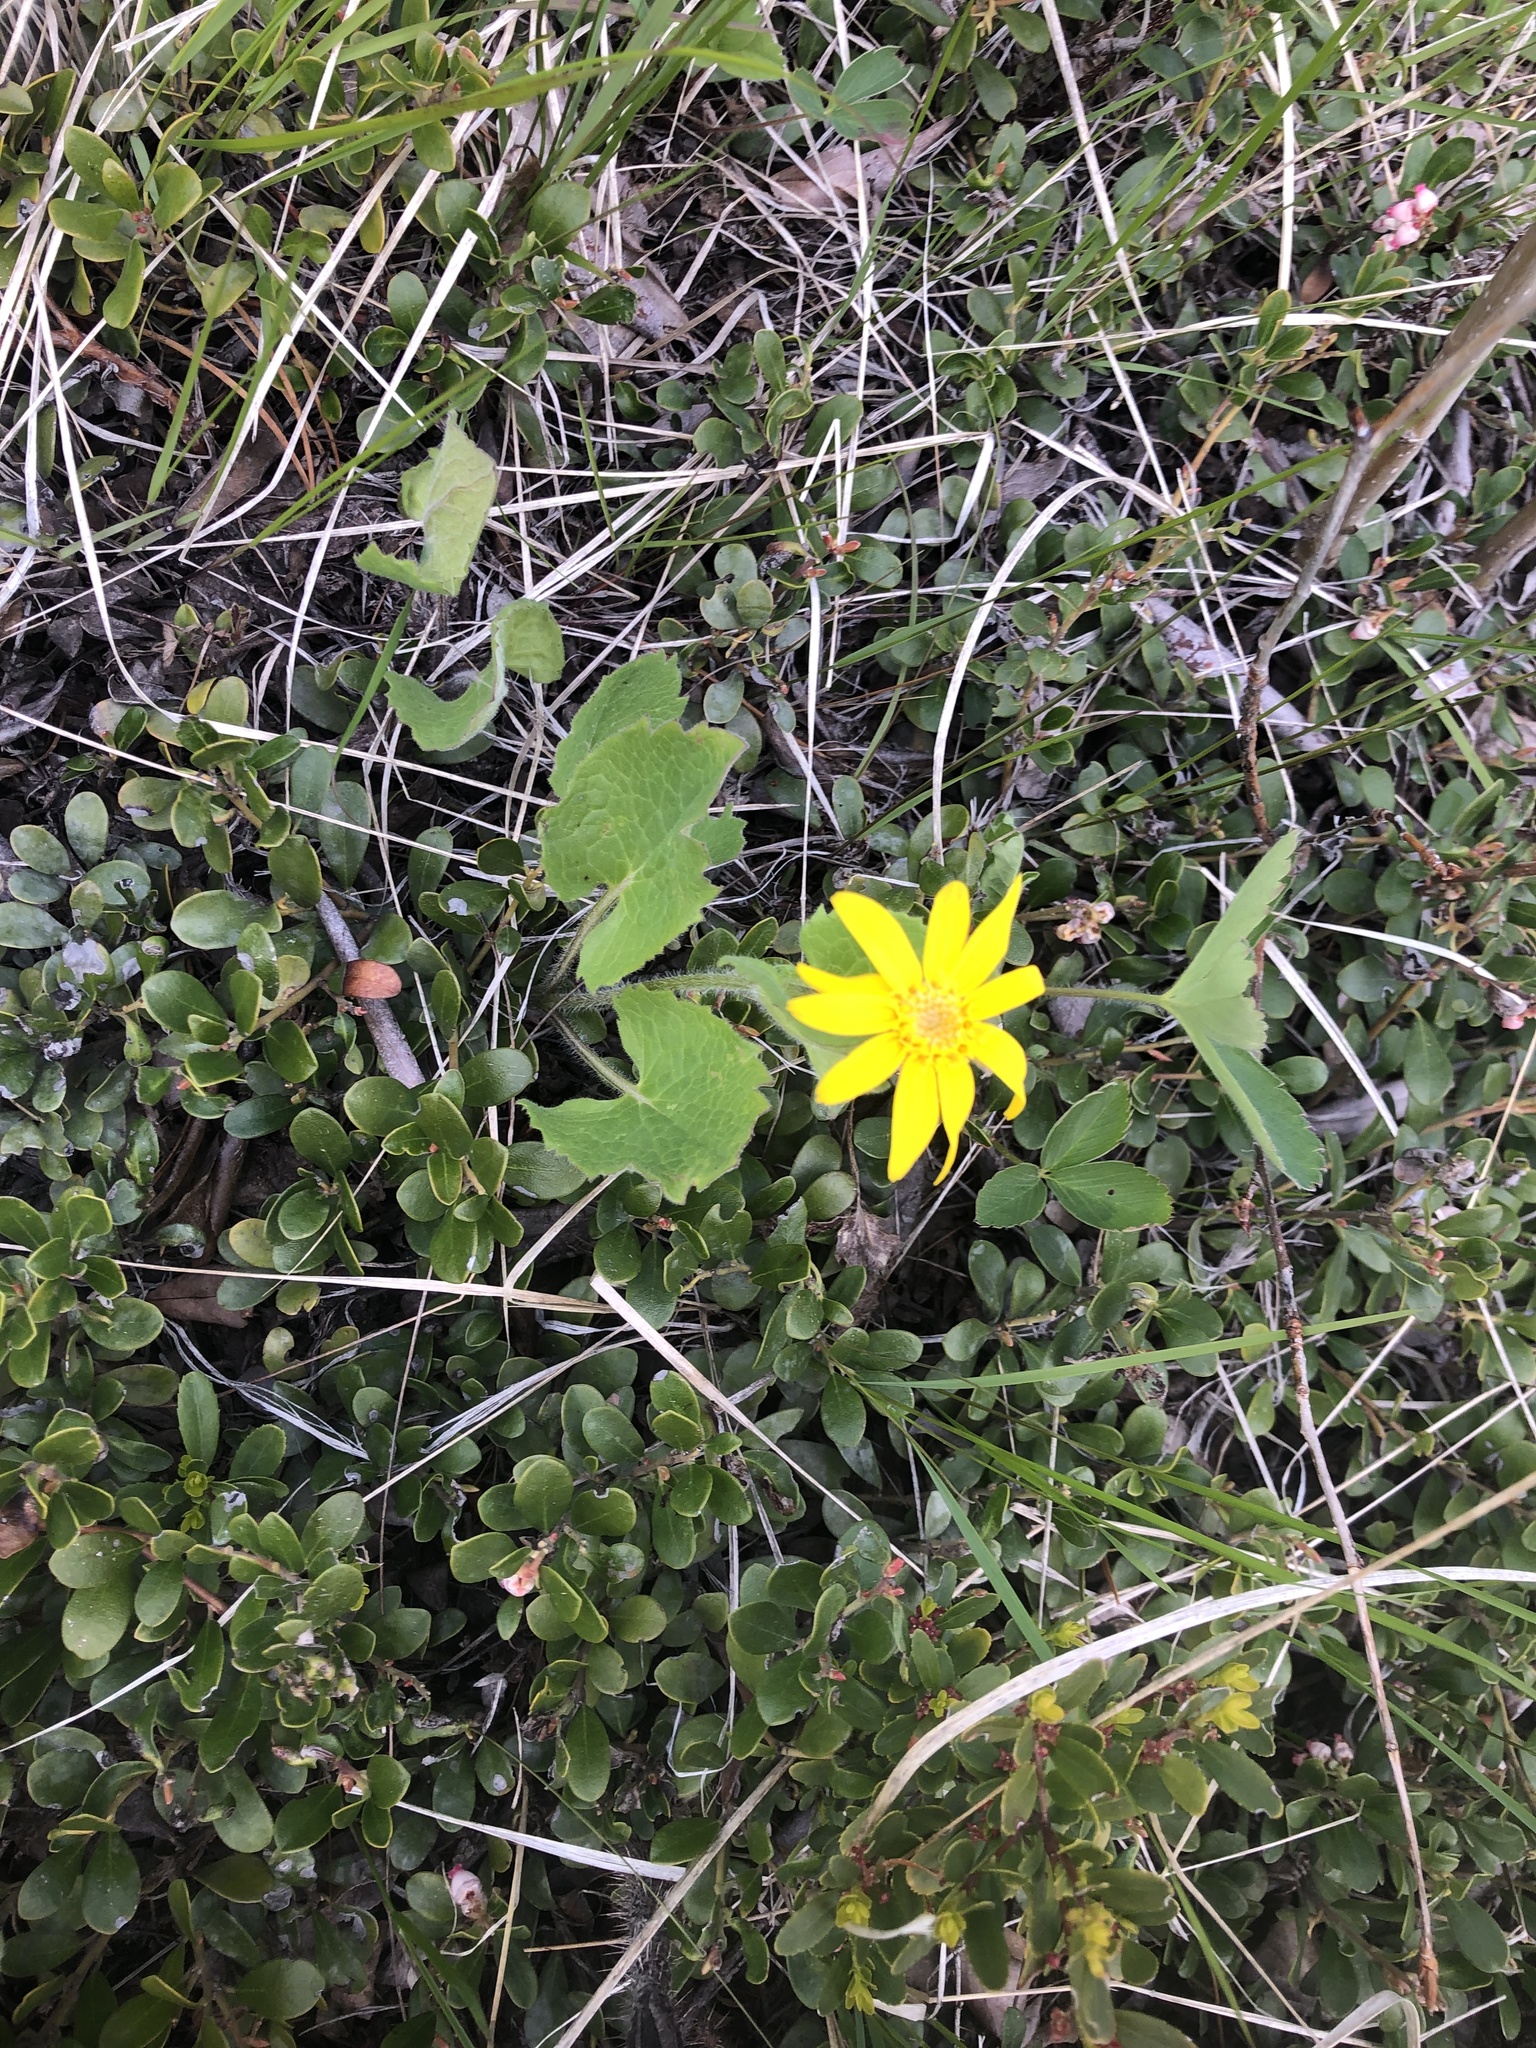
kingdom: Plantae
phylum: Tracheophyta
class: Magnoliopsida
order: Asterales
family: Asteraceae
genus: Arnica
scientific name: Arnica cordifolia
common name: Heart-leaf arnica
